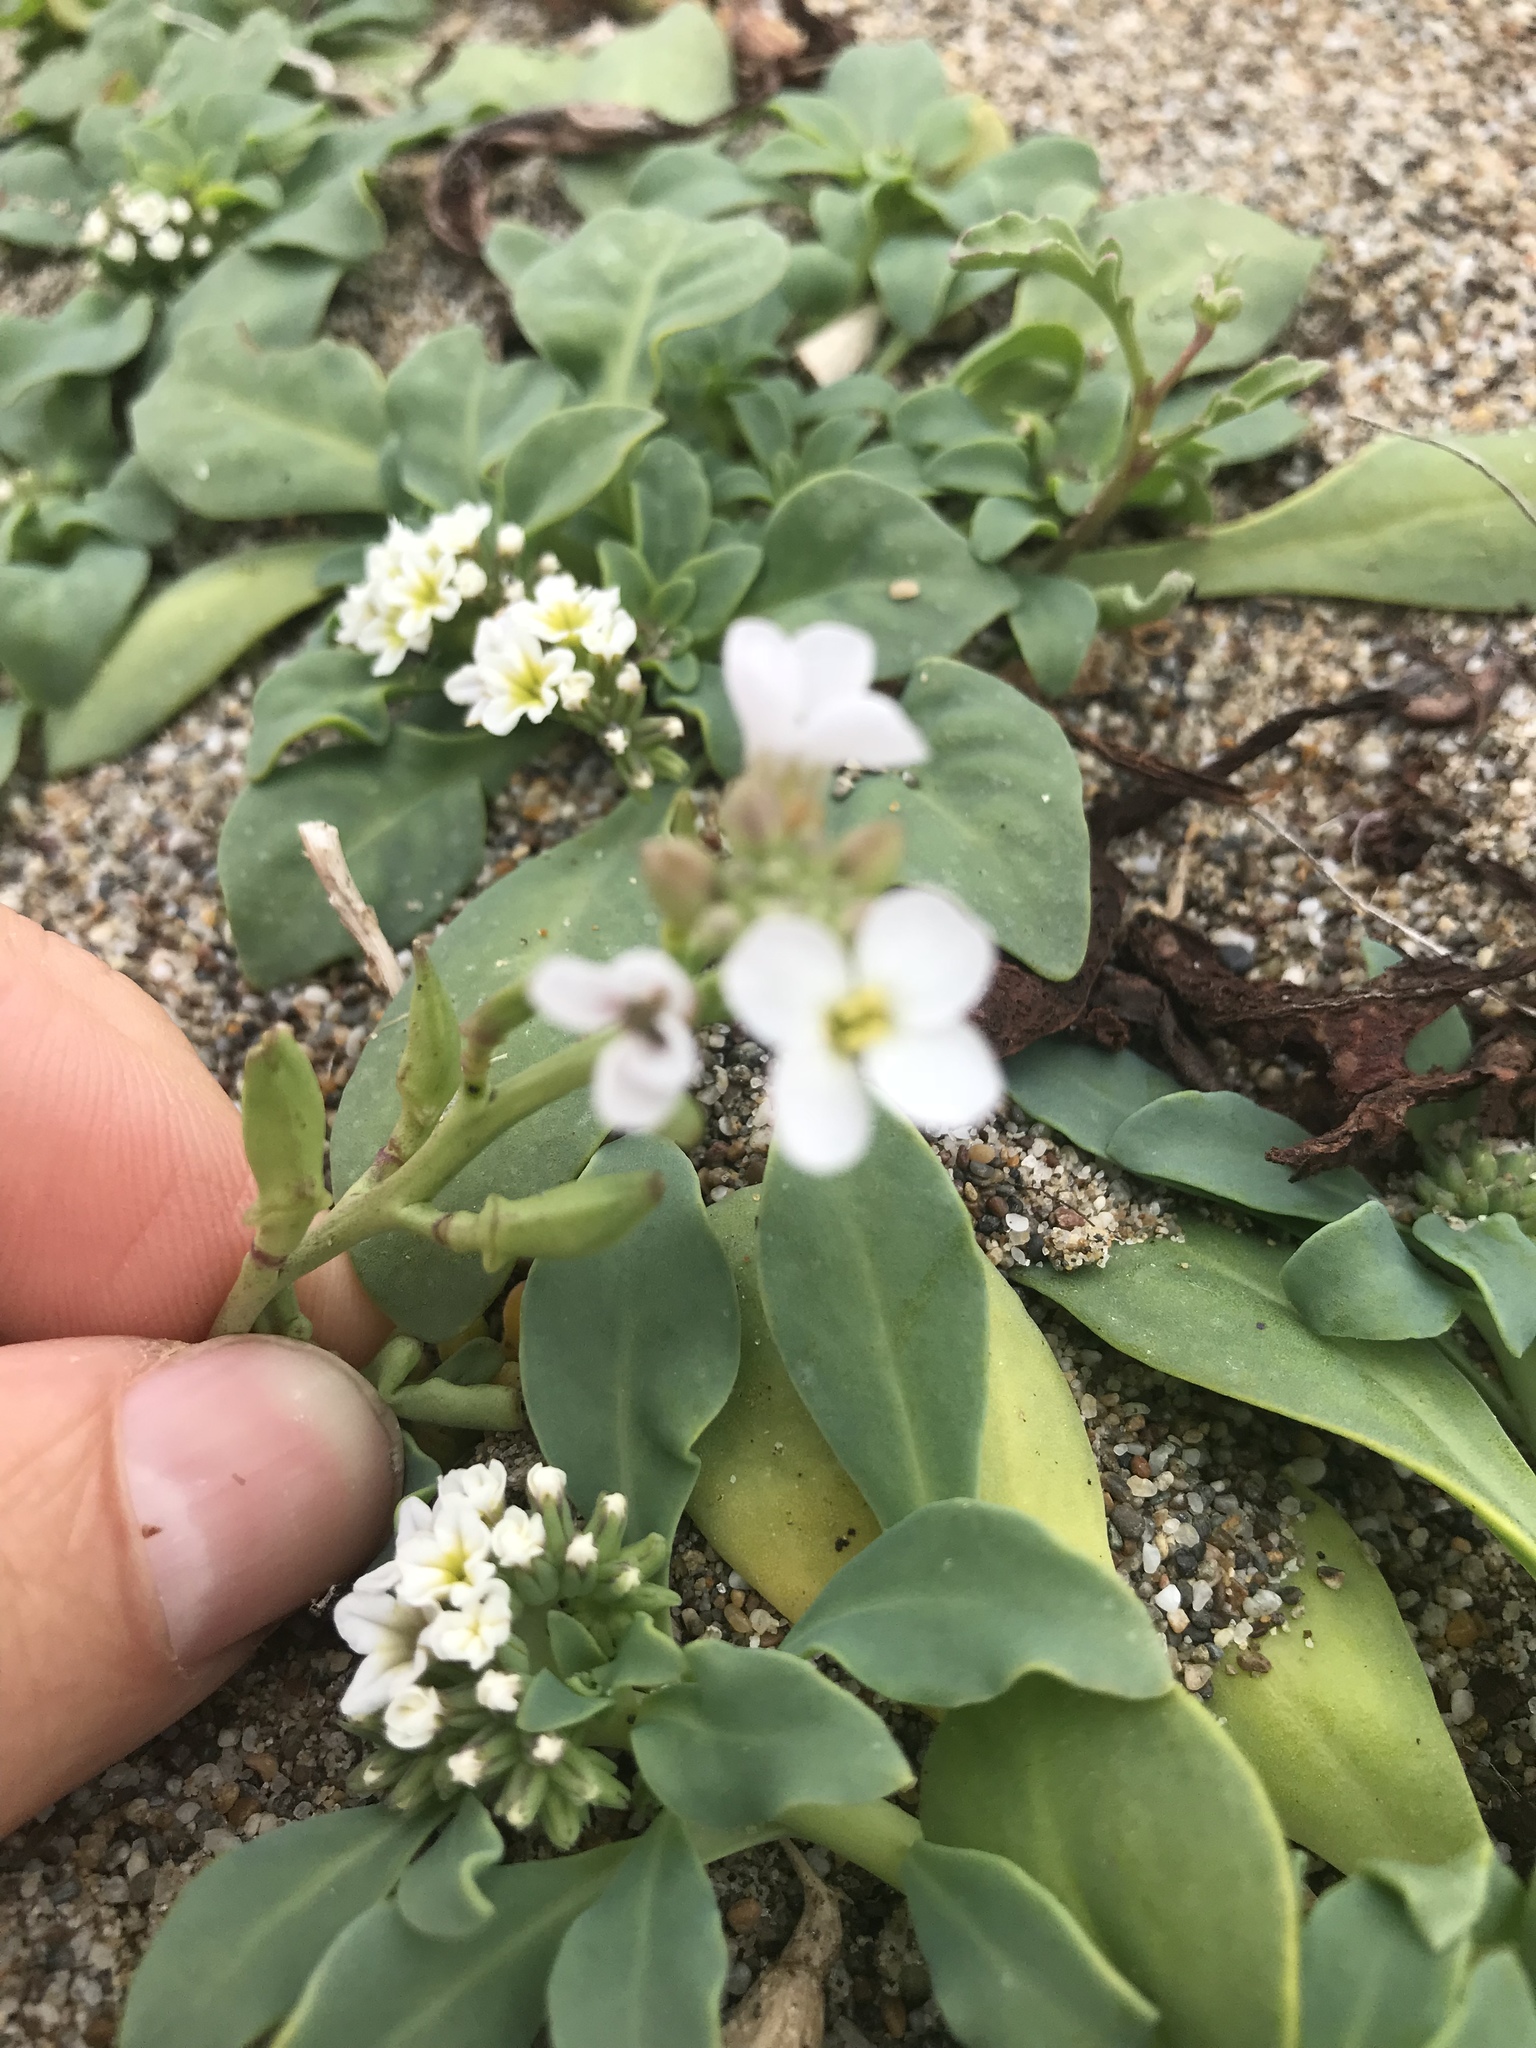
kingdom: Plantae
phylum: Tracheophyta
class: Magnoliopsida
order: Brassicales
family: Brassicaceae
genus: Cakile
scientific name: Cakile maritima
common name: Sea rocket
